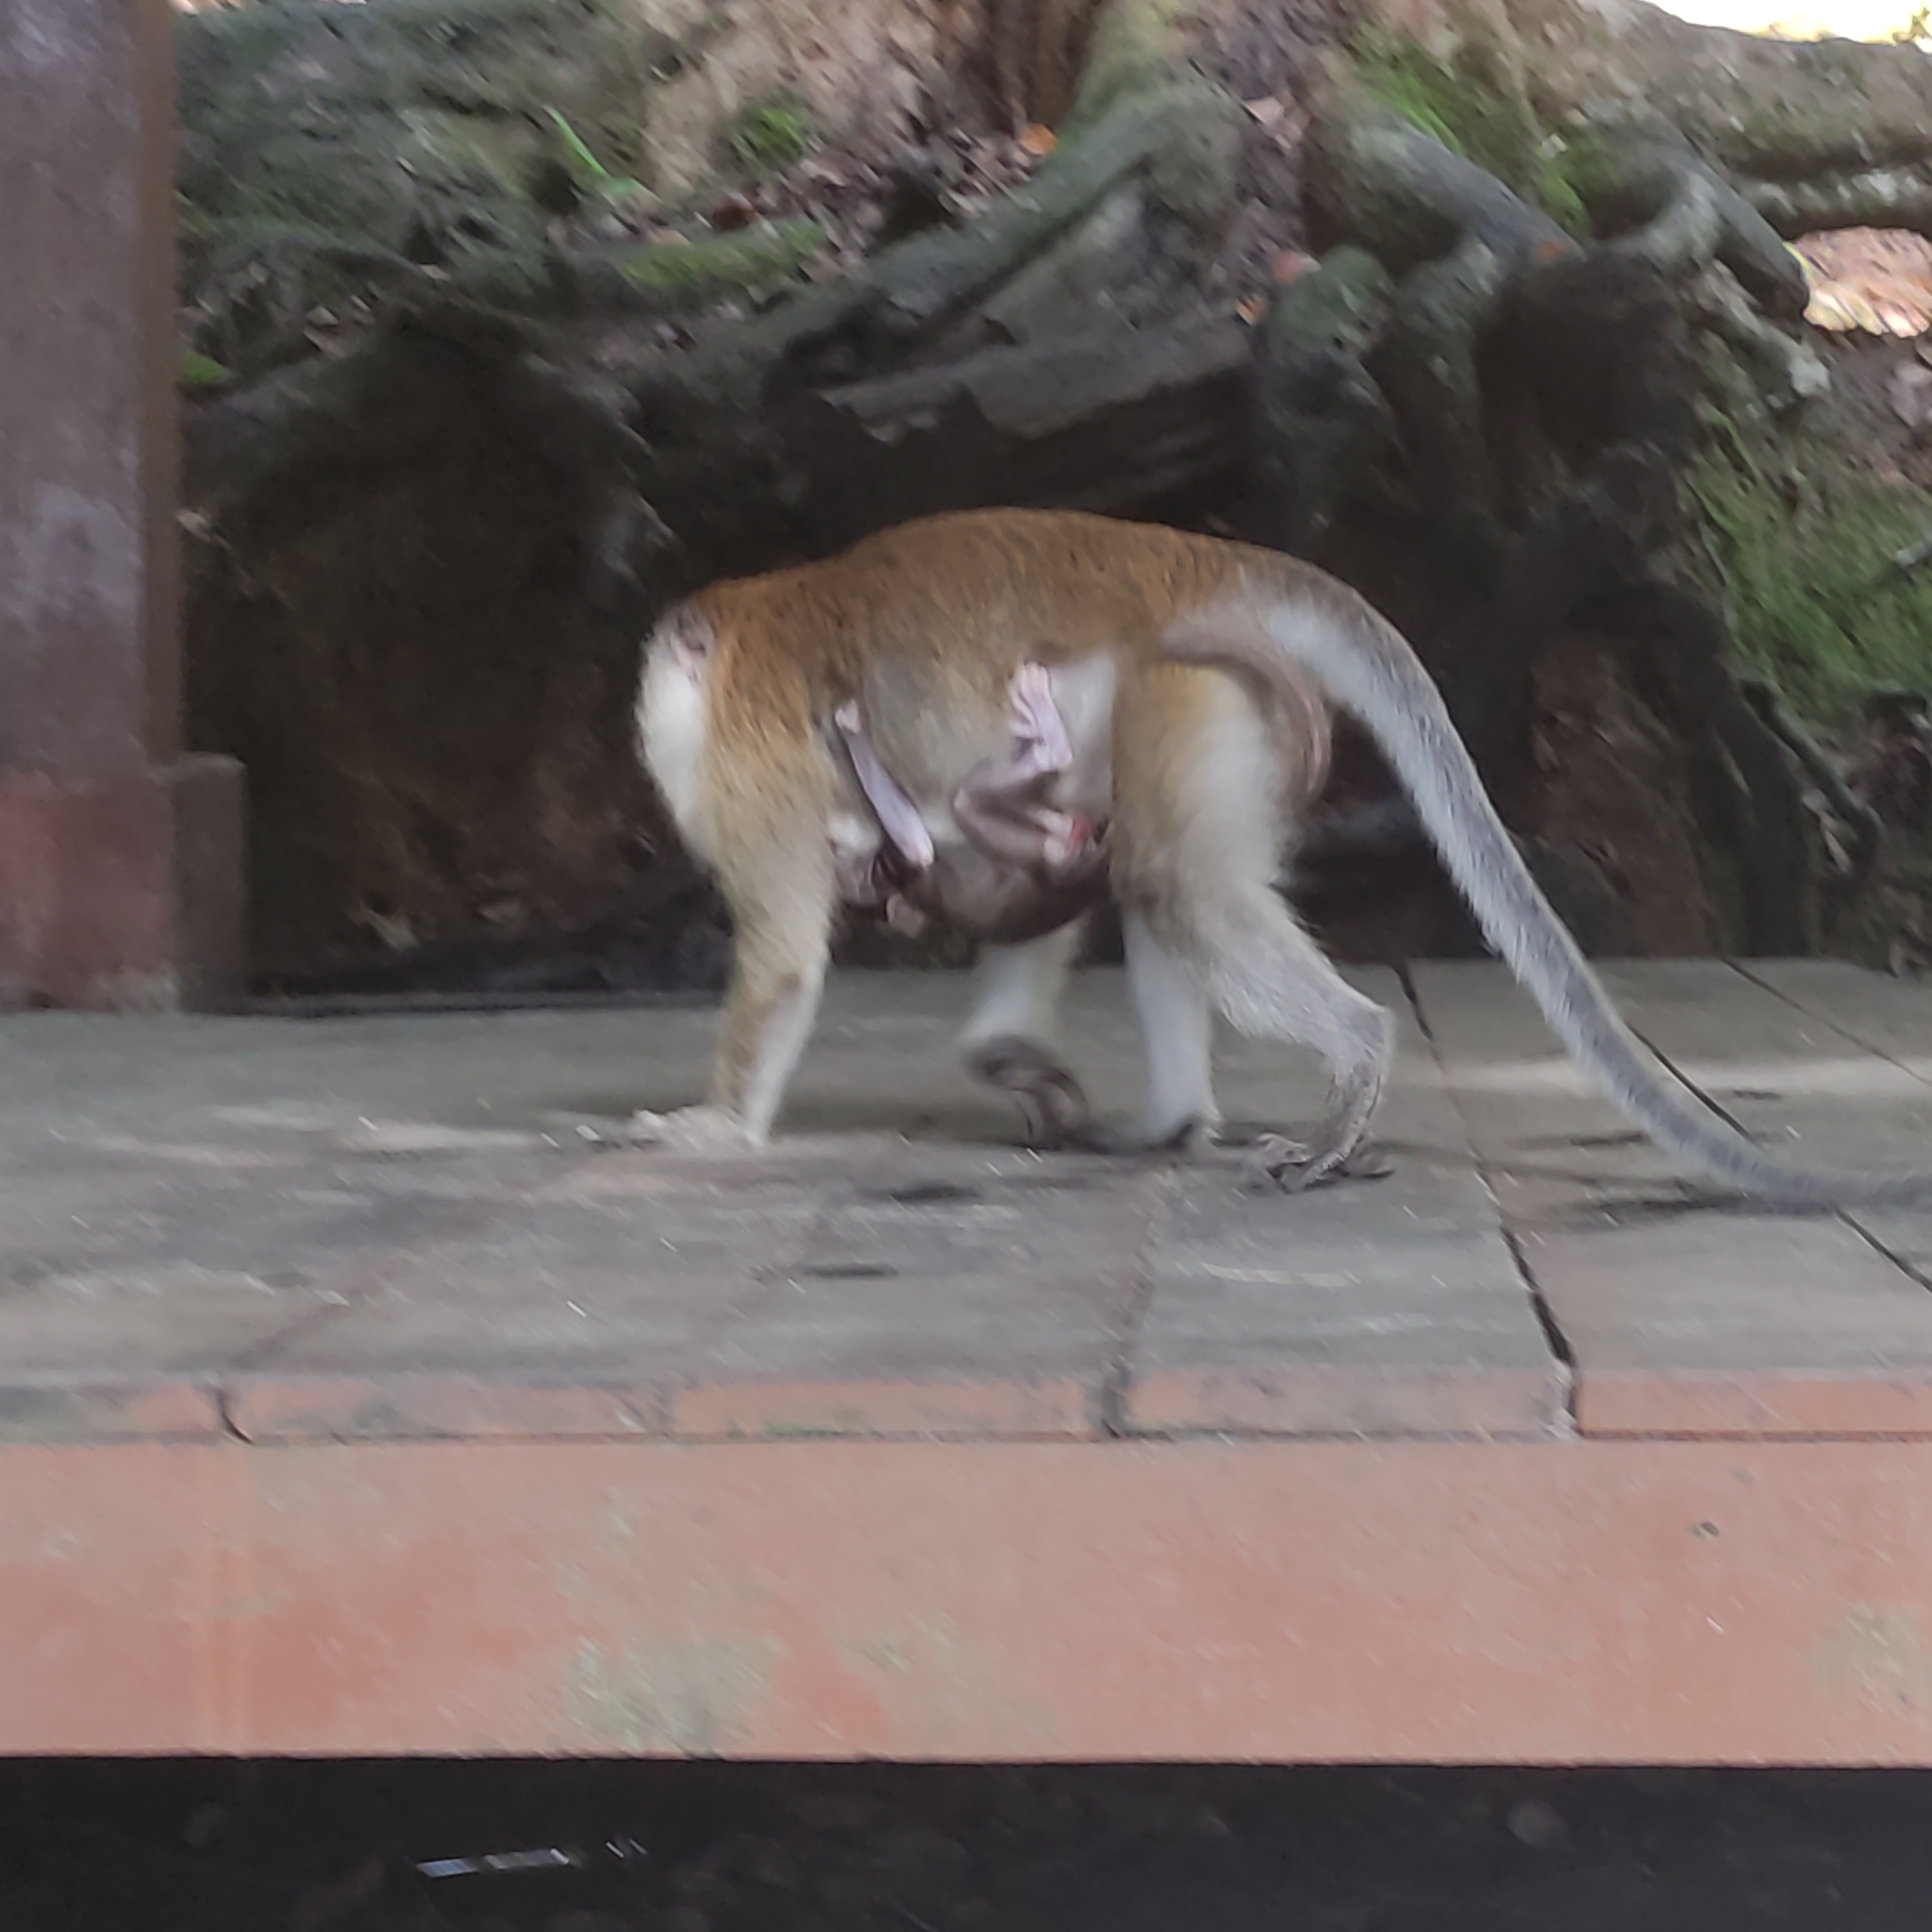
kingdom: Animalia
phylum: Chordata
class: Mammalia
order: Primates
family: Cercopithecidae
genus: Macaca
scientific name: Macaca fascicularis
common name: Crab-eating macaque
